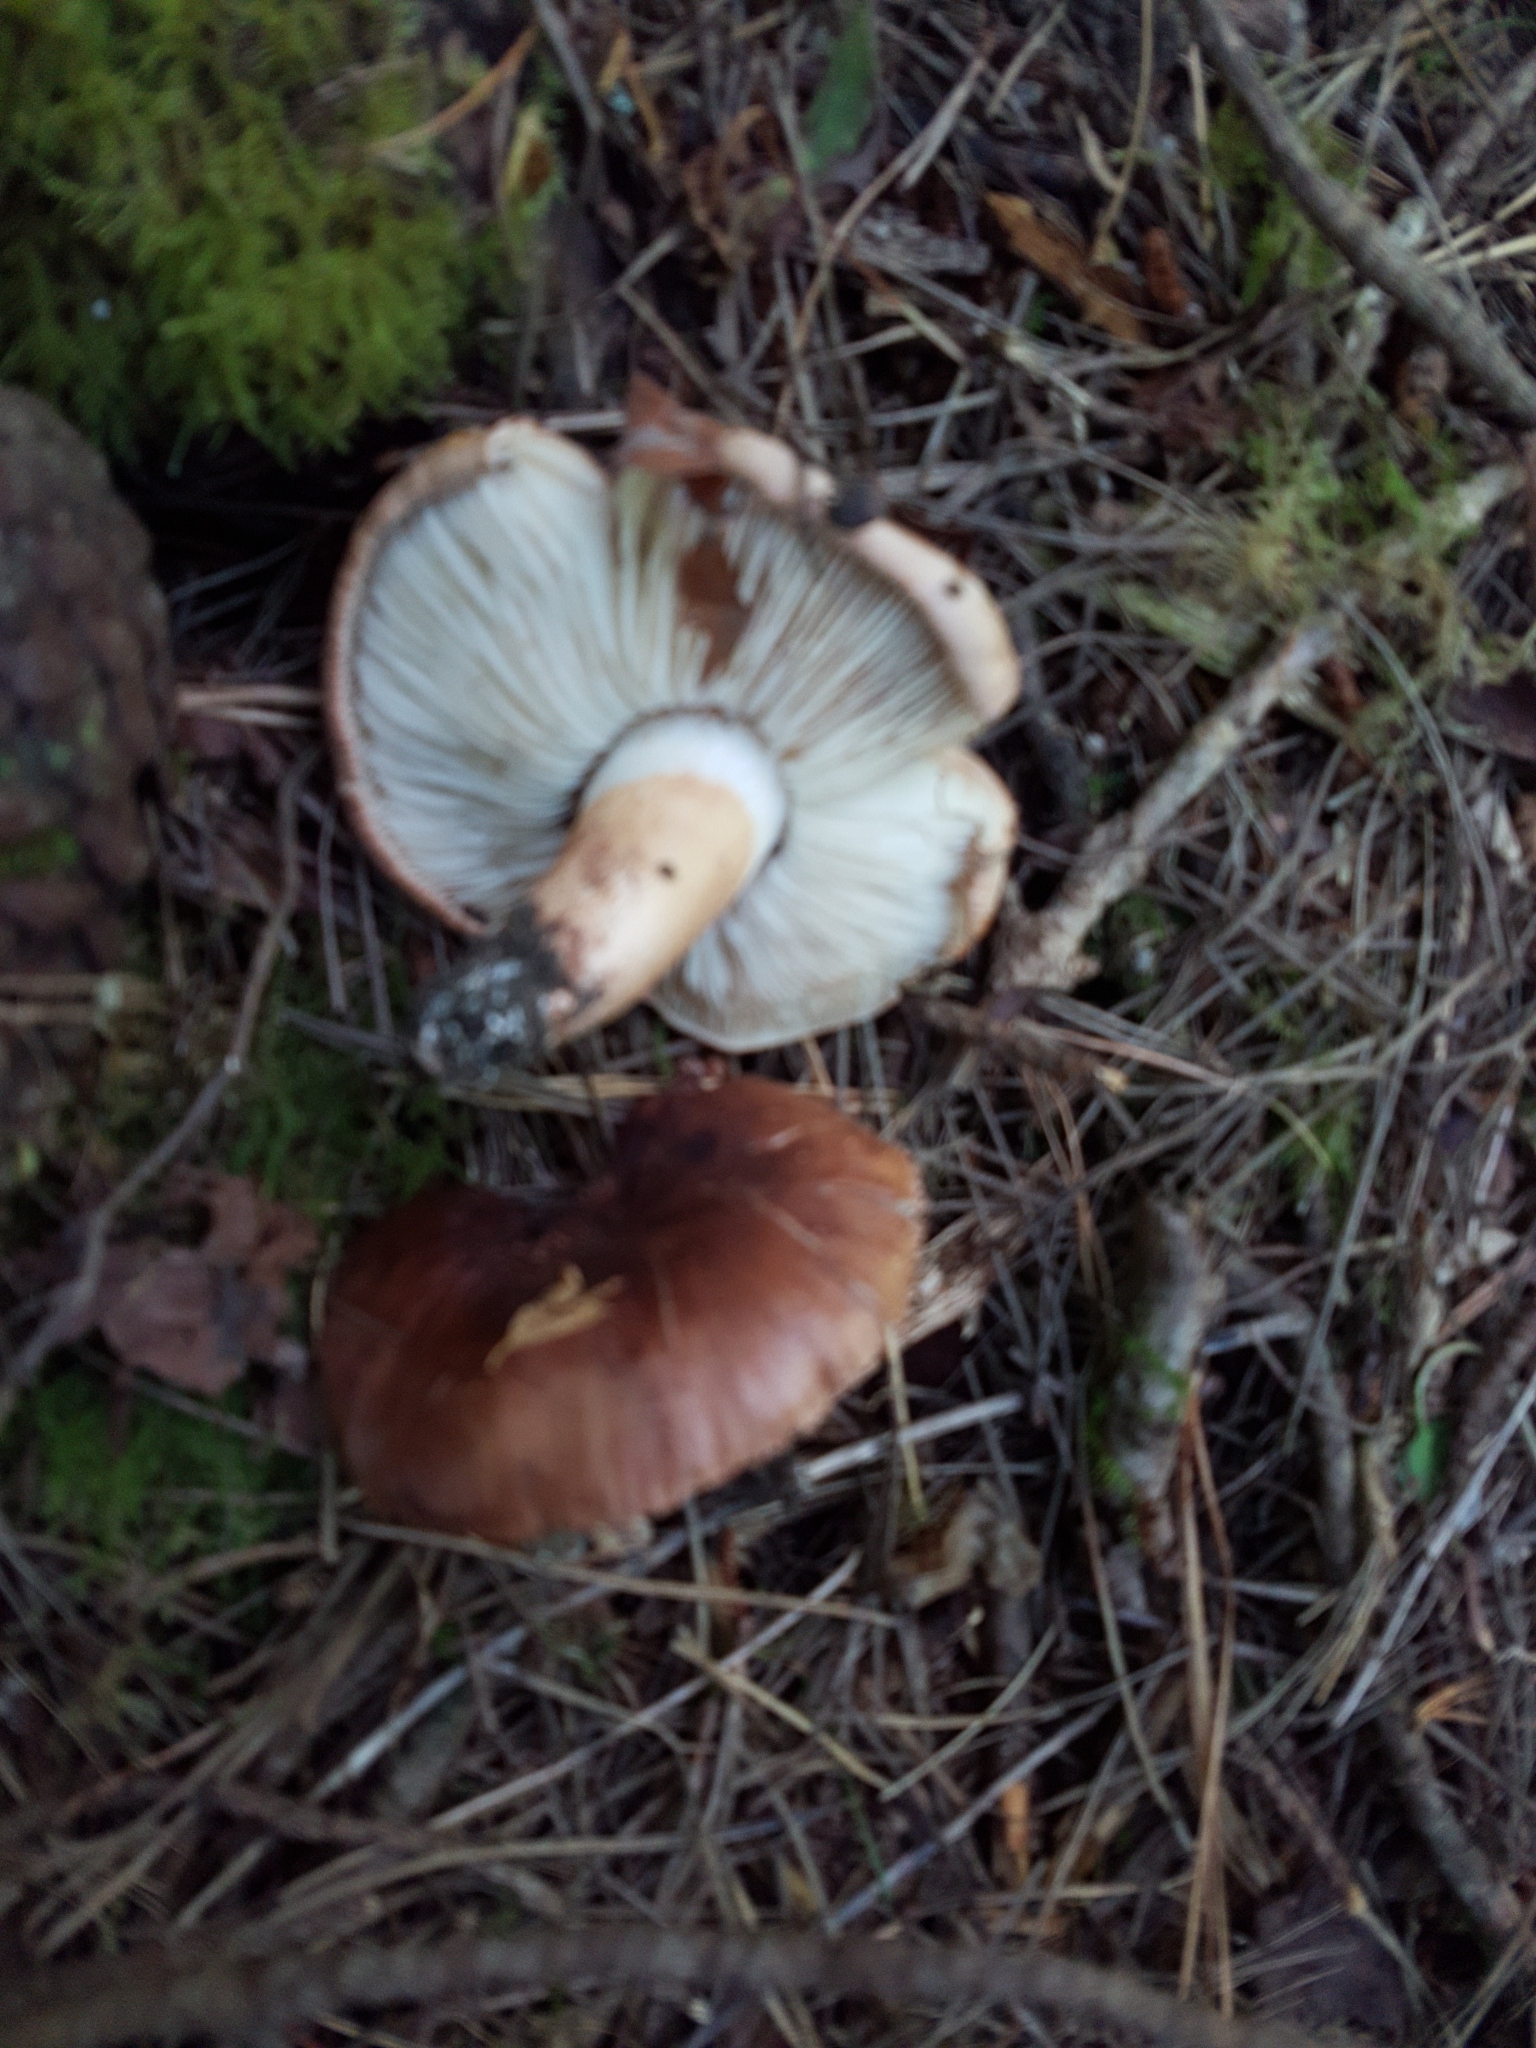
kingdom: Fungi
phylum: Basidiomycota
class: Agaricomycetes
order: Agaricales
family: Tricholomataceae
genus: Tricholoma
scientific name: Tricholoma batschii
